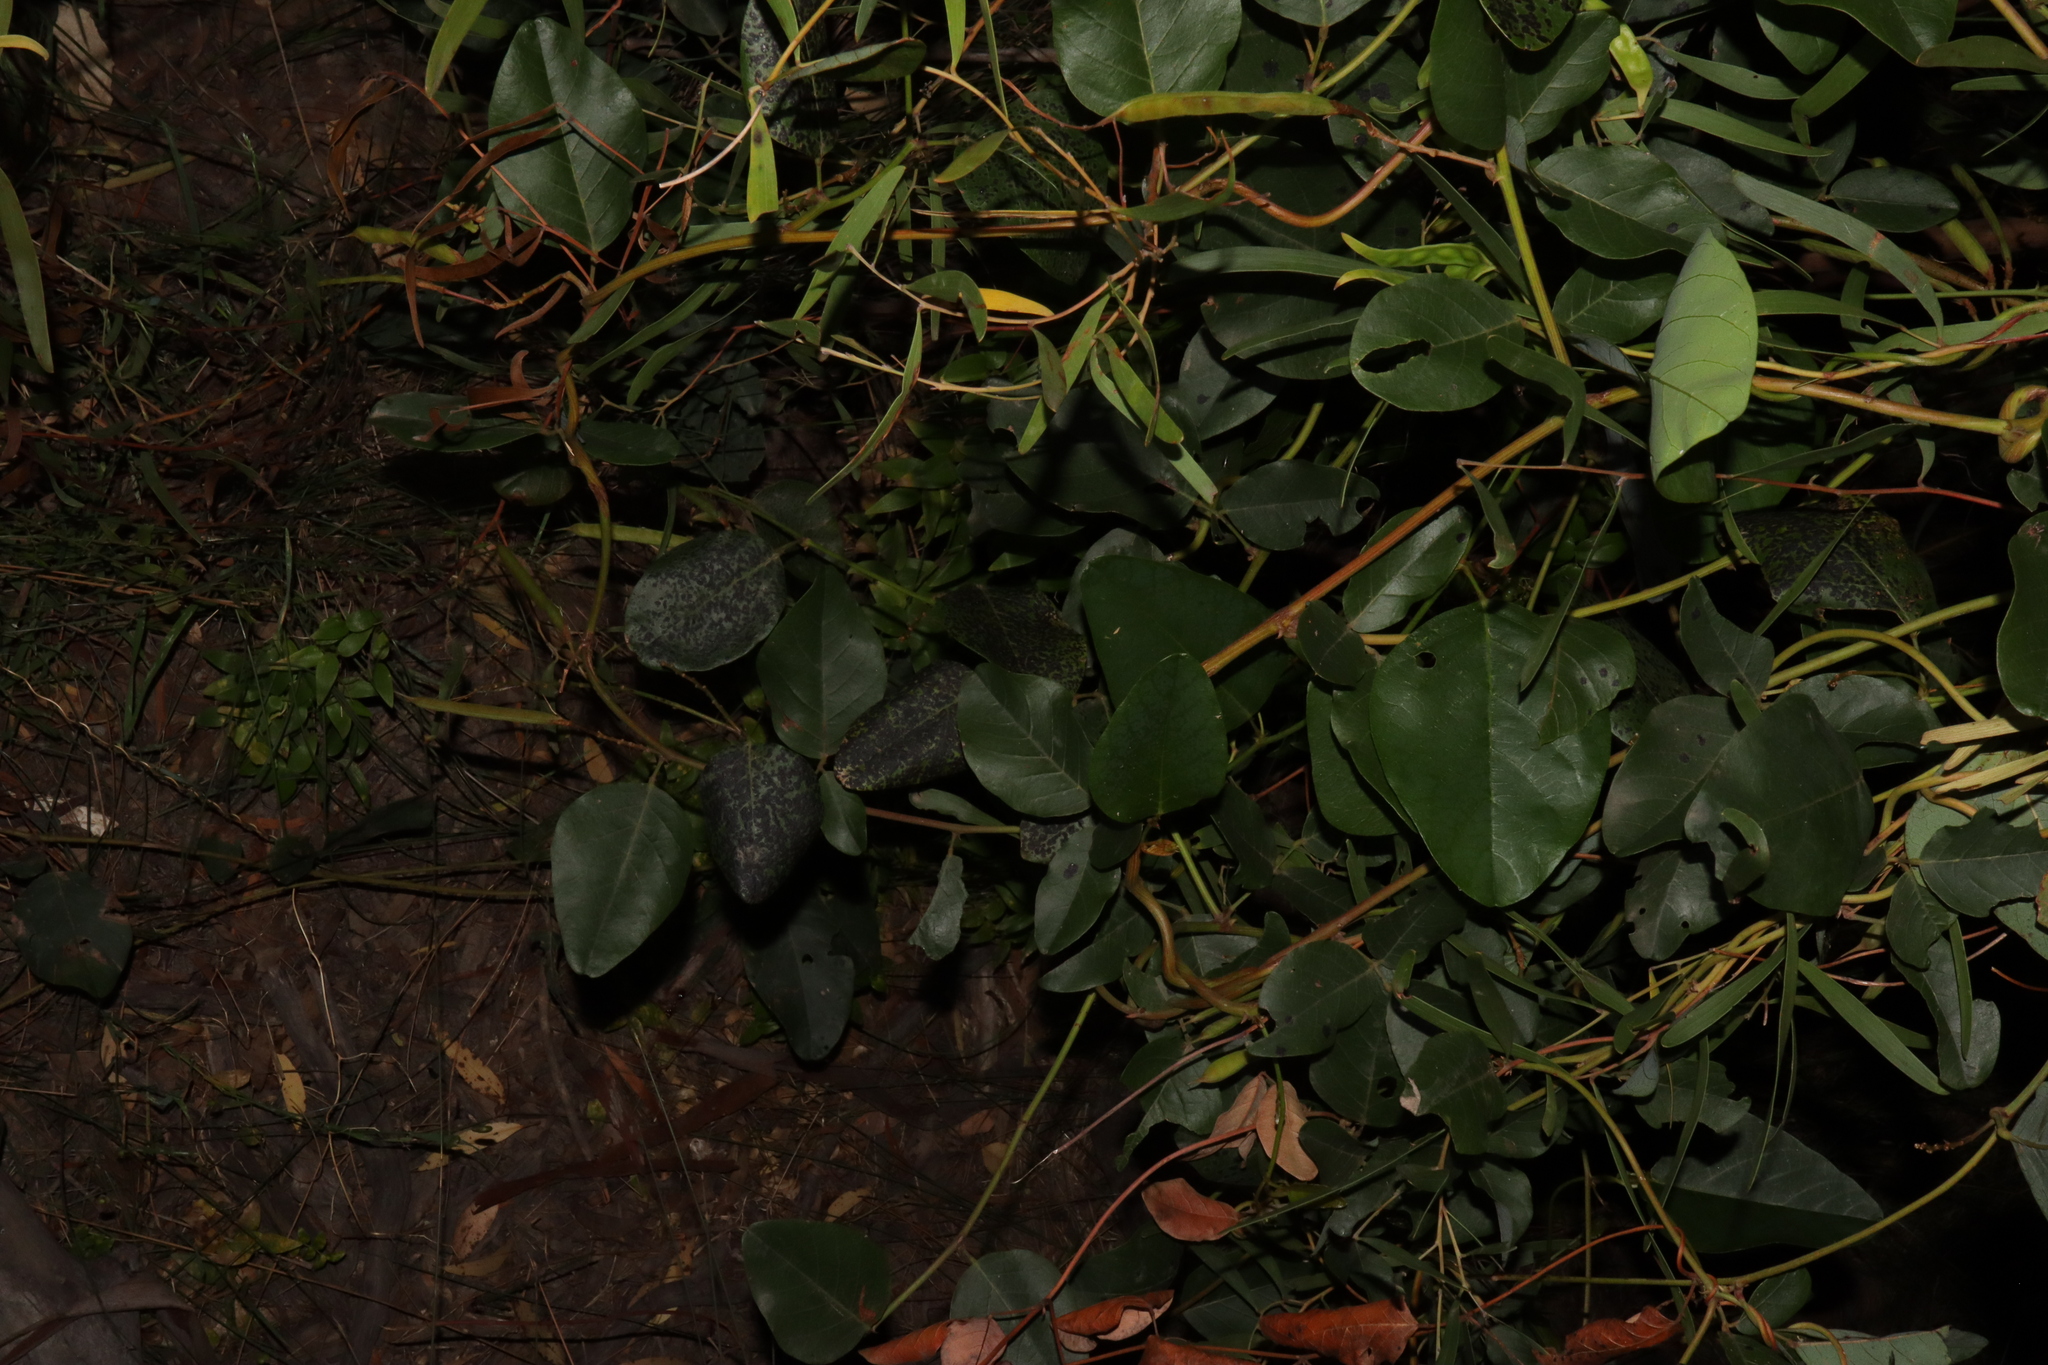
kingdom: Plantae
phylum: Tracheophyta
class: Magnoliopsida
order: Fabales
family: Fabaceae
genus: Kennedia
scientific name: Kennedia nigricans
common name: Black-bean
